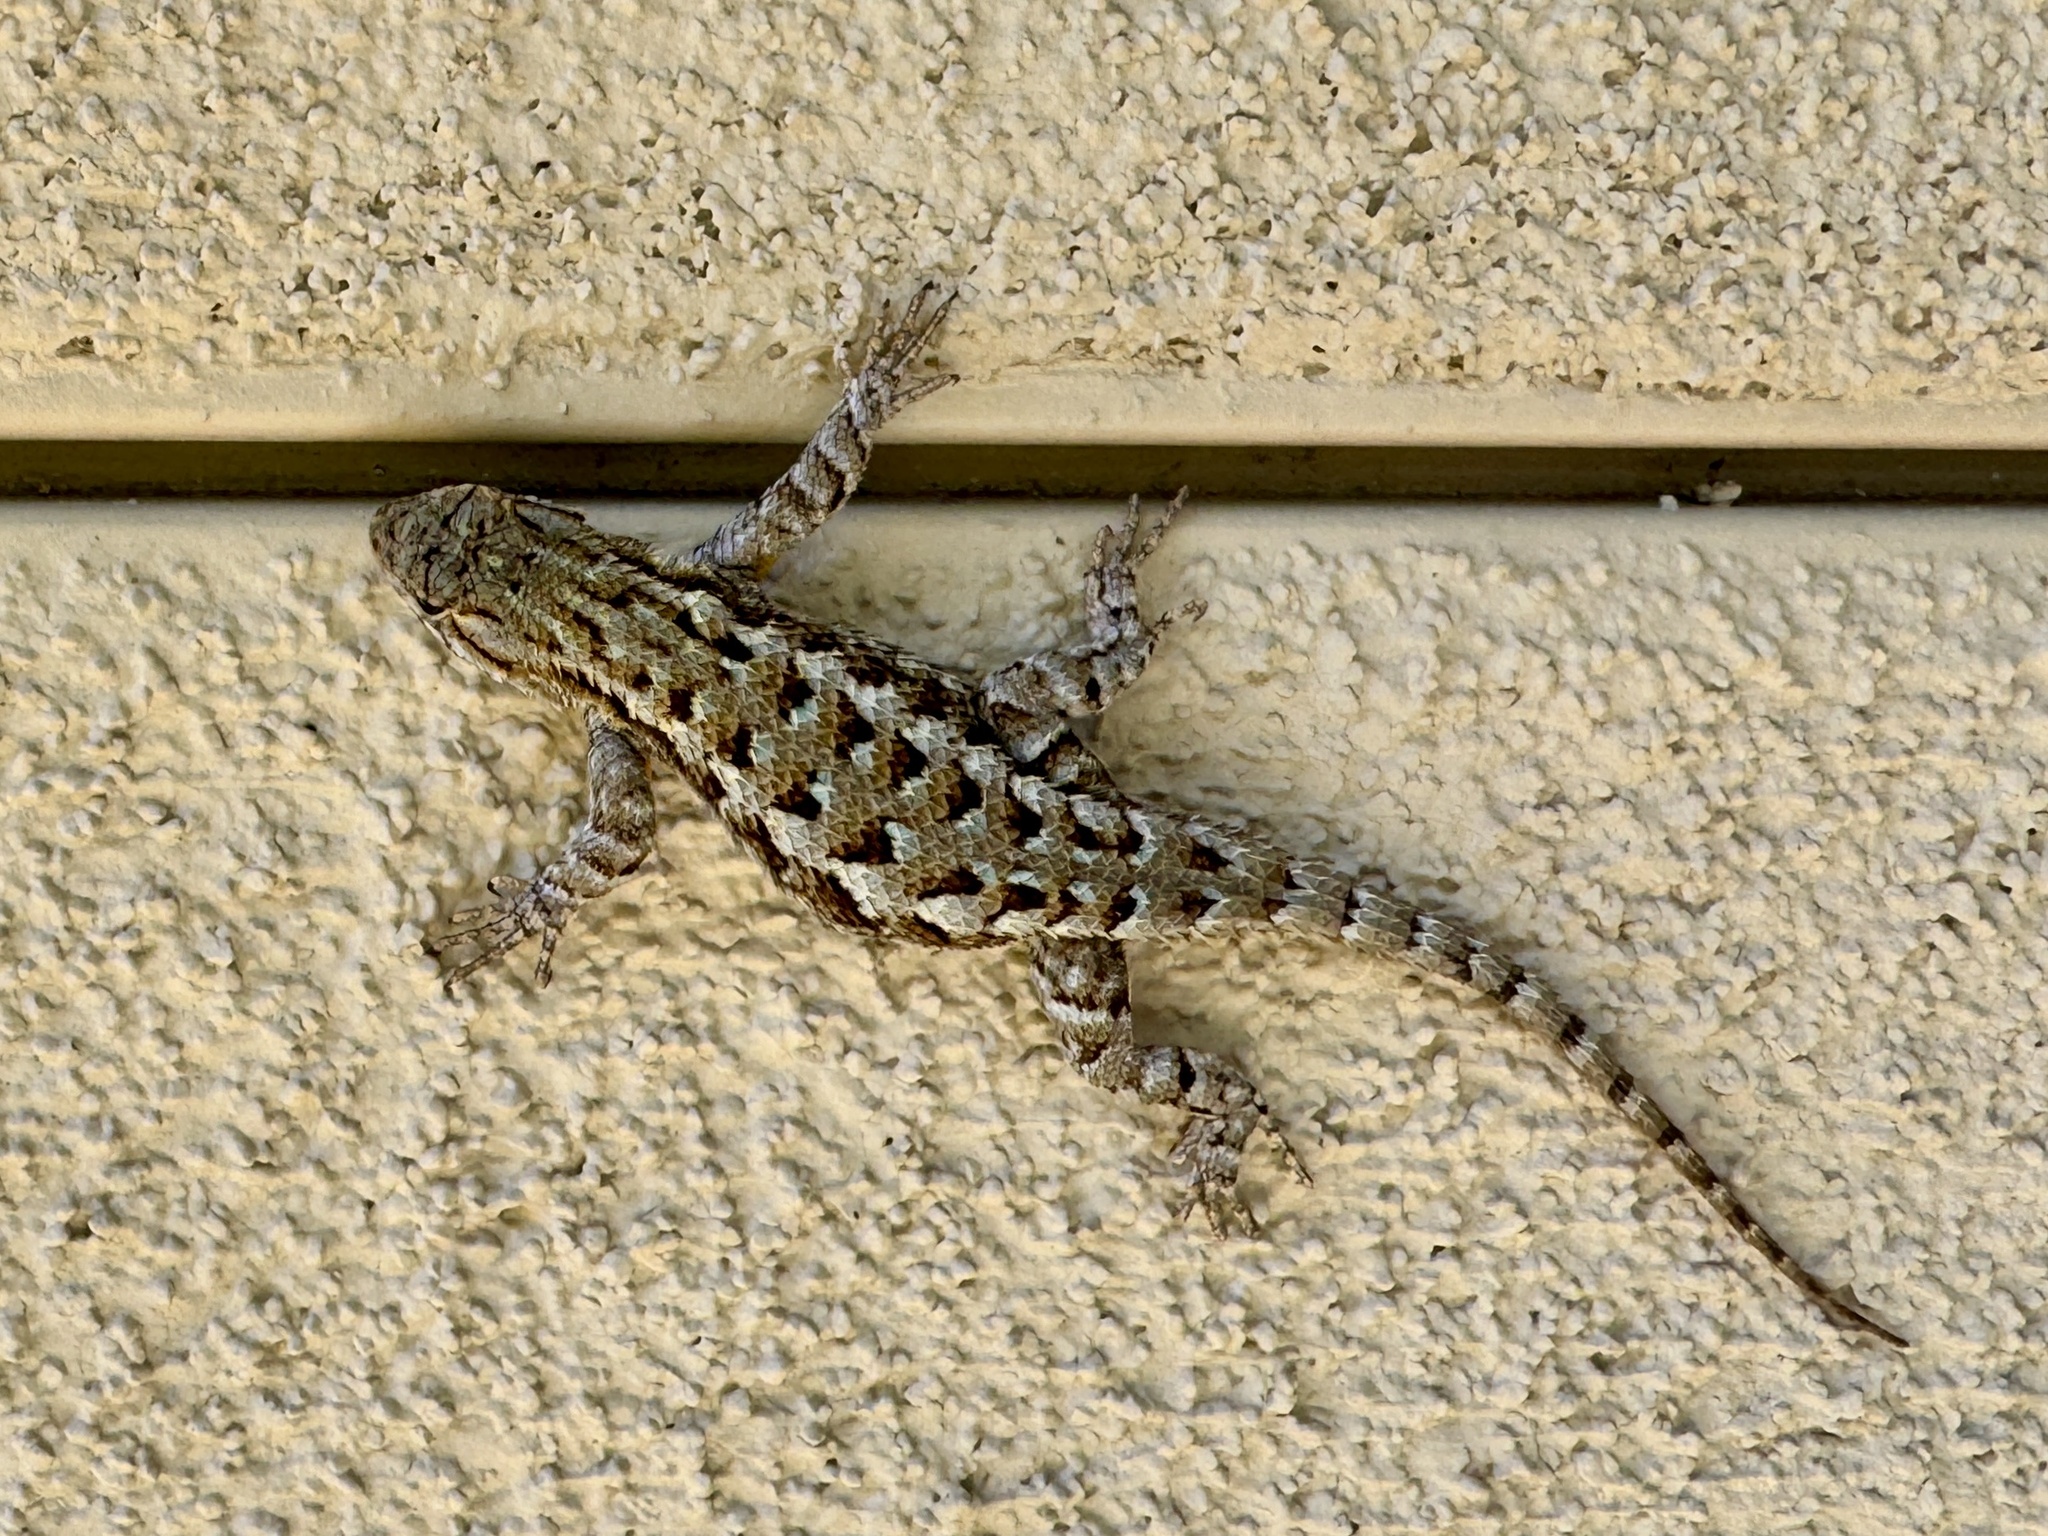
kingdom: Animalia
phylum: Chordata
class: Squamata
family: Phrynosomatidae
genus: Sceloporus
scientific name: Sceloporus occidentalis
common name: Western fence lizard
